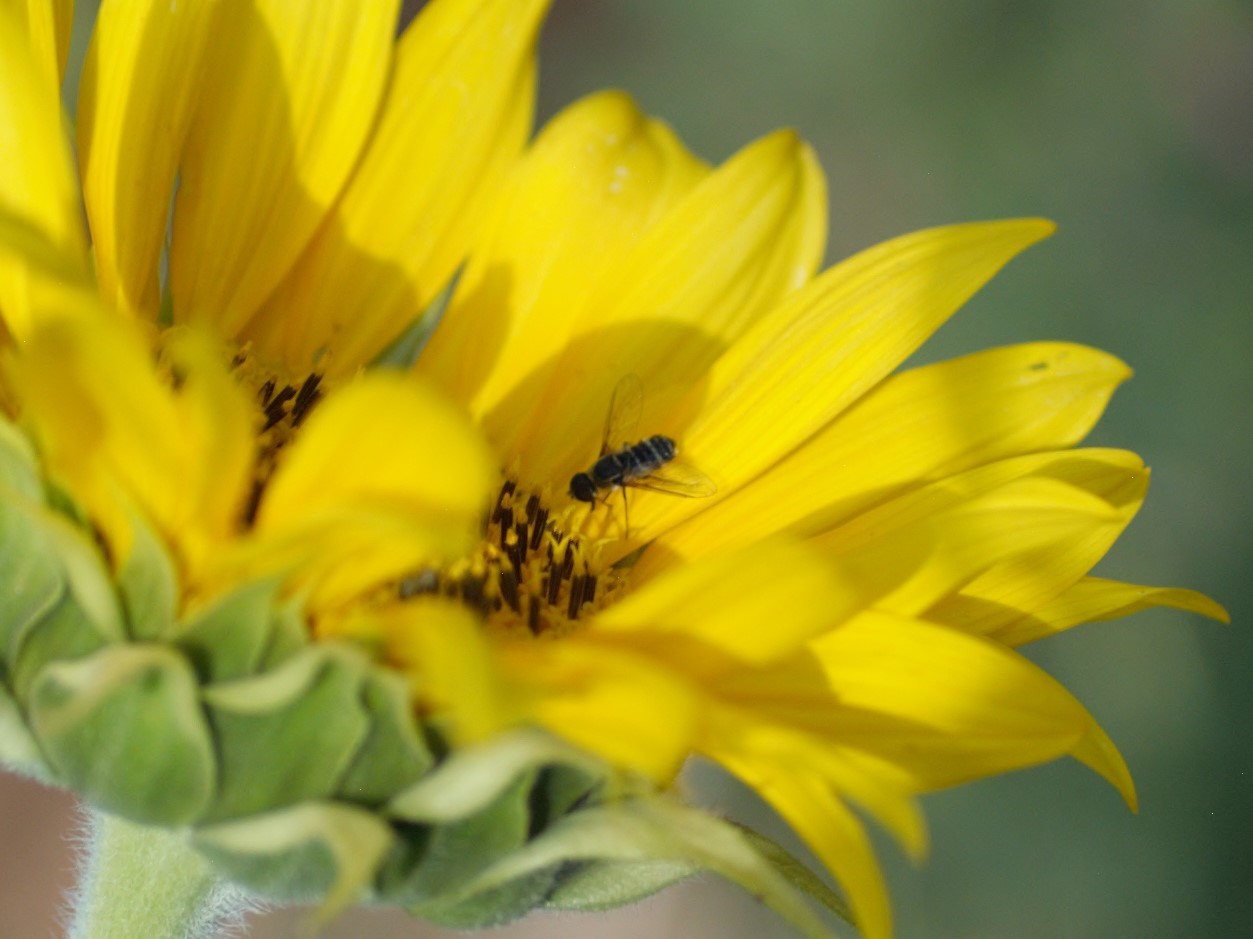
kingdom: Animalia
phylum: Arthropoda
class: Insecta
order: Diptera
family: Bombyliidae
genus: Villa
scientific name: Villa
